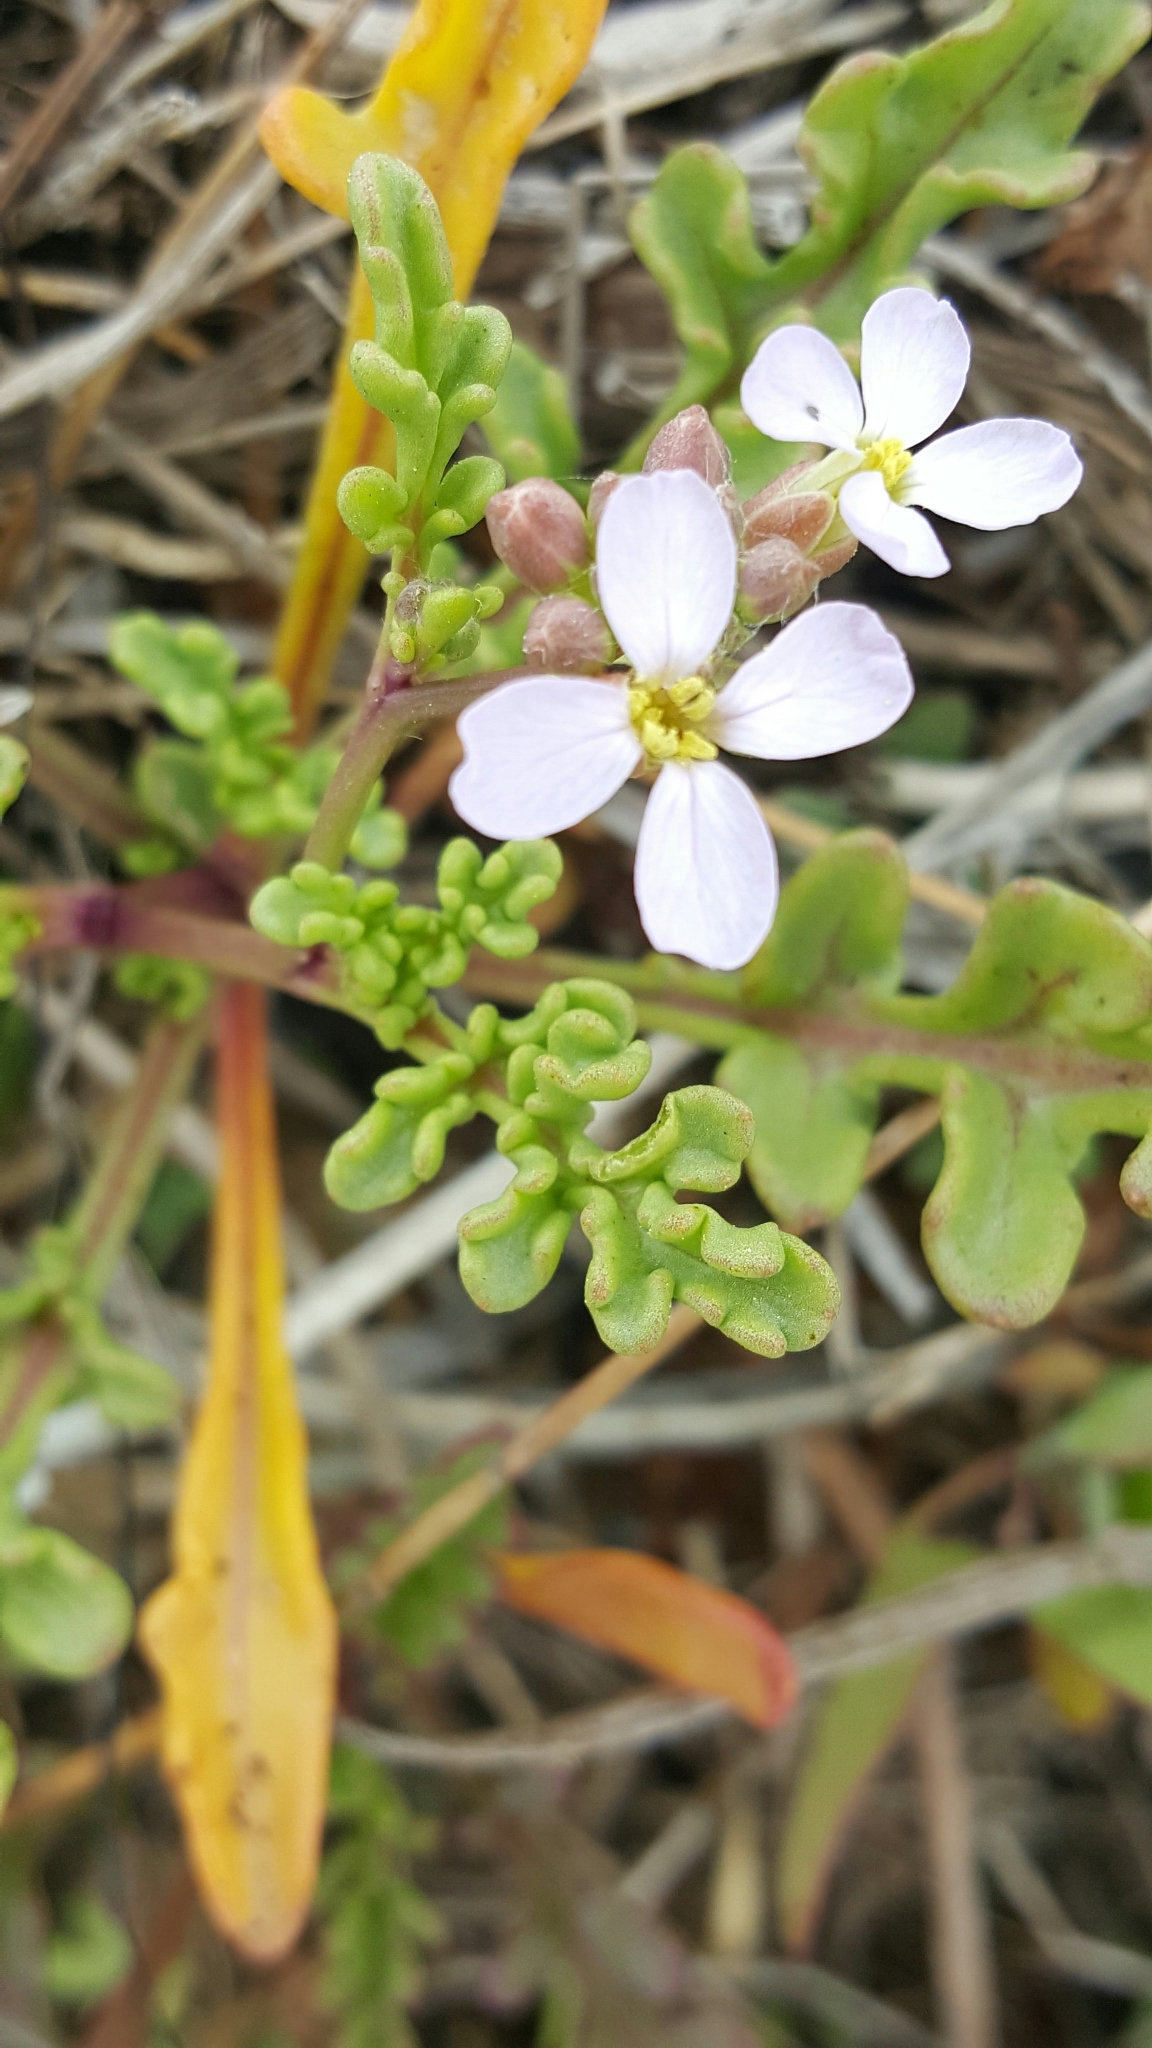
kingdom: Plantae
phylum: Tracheophyta
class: Magnoliopsida
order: Brassicales
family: Brassicaceae
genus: Cakile
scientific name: Cakile maritima
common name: Sea rocket
